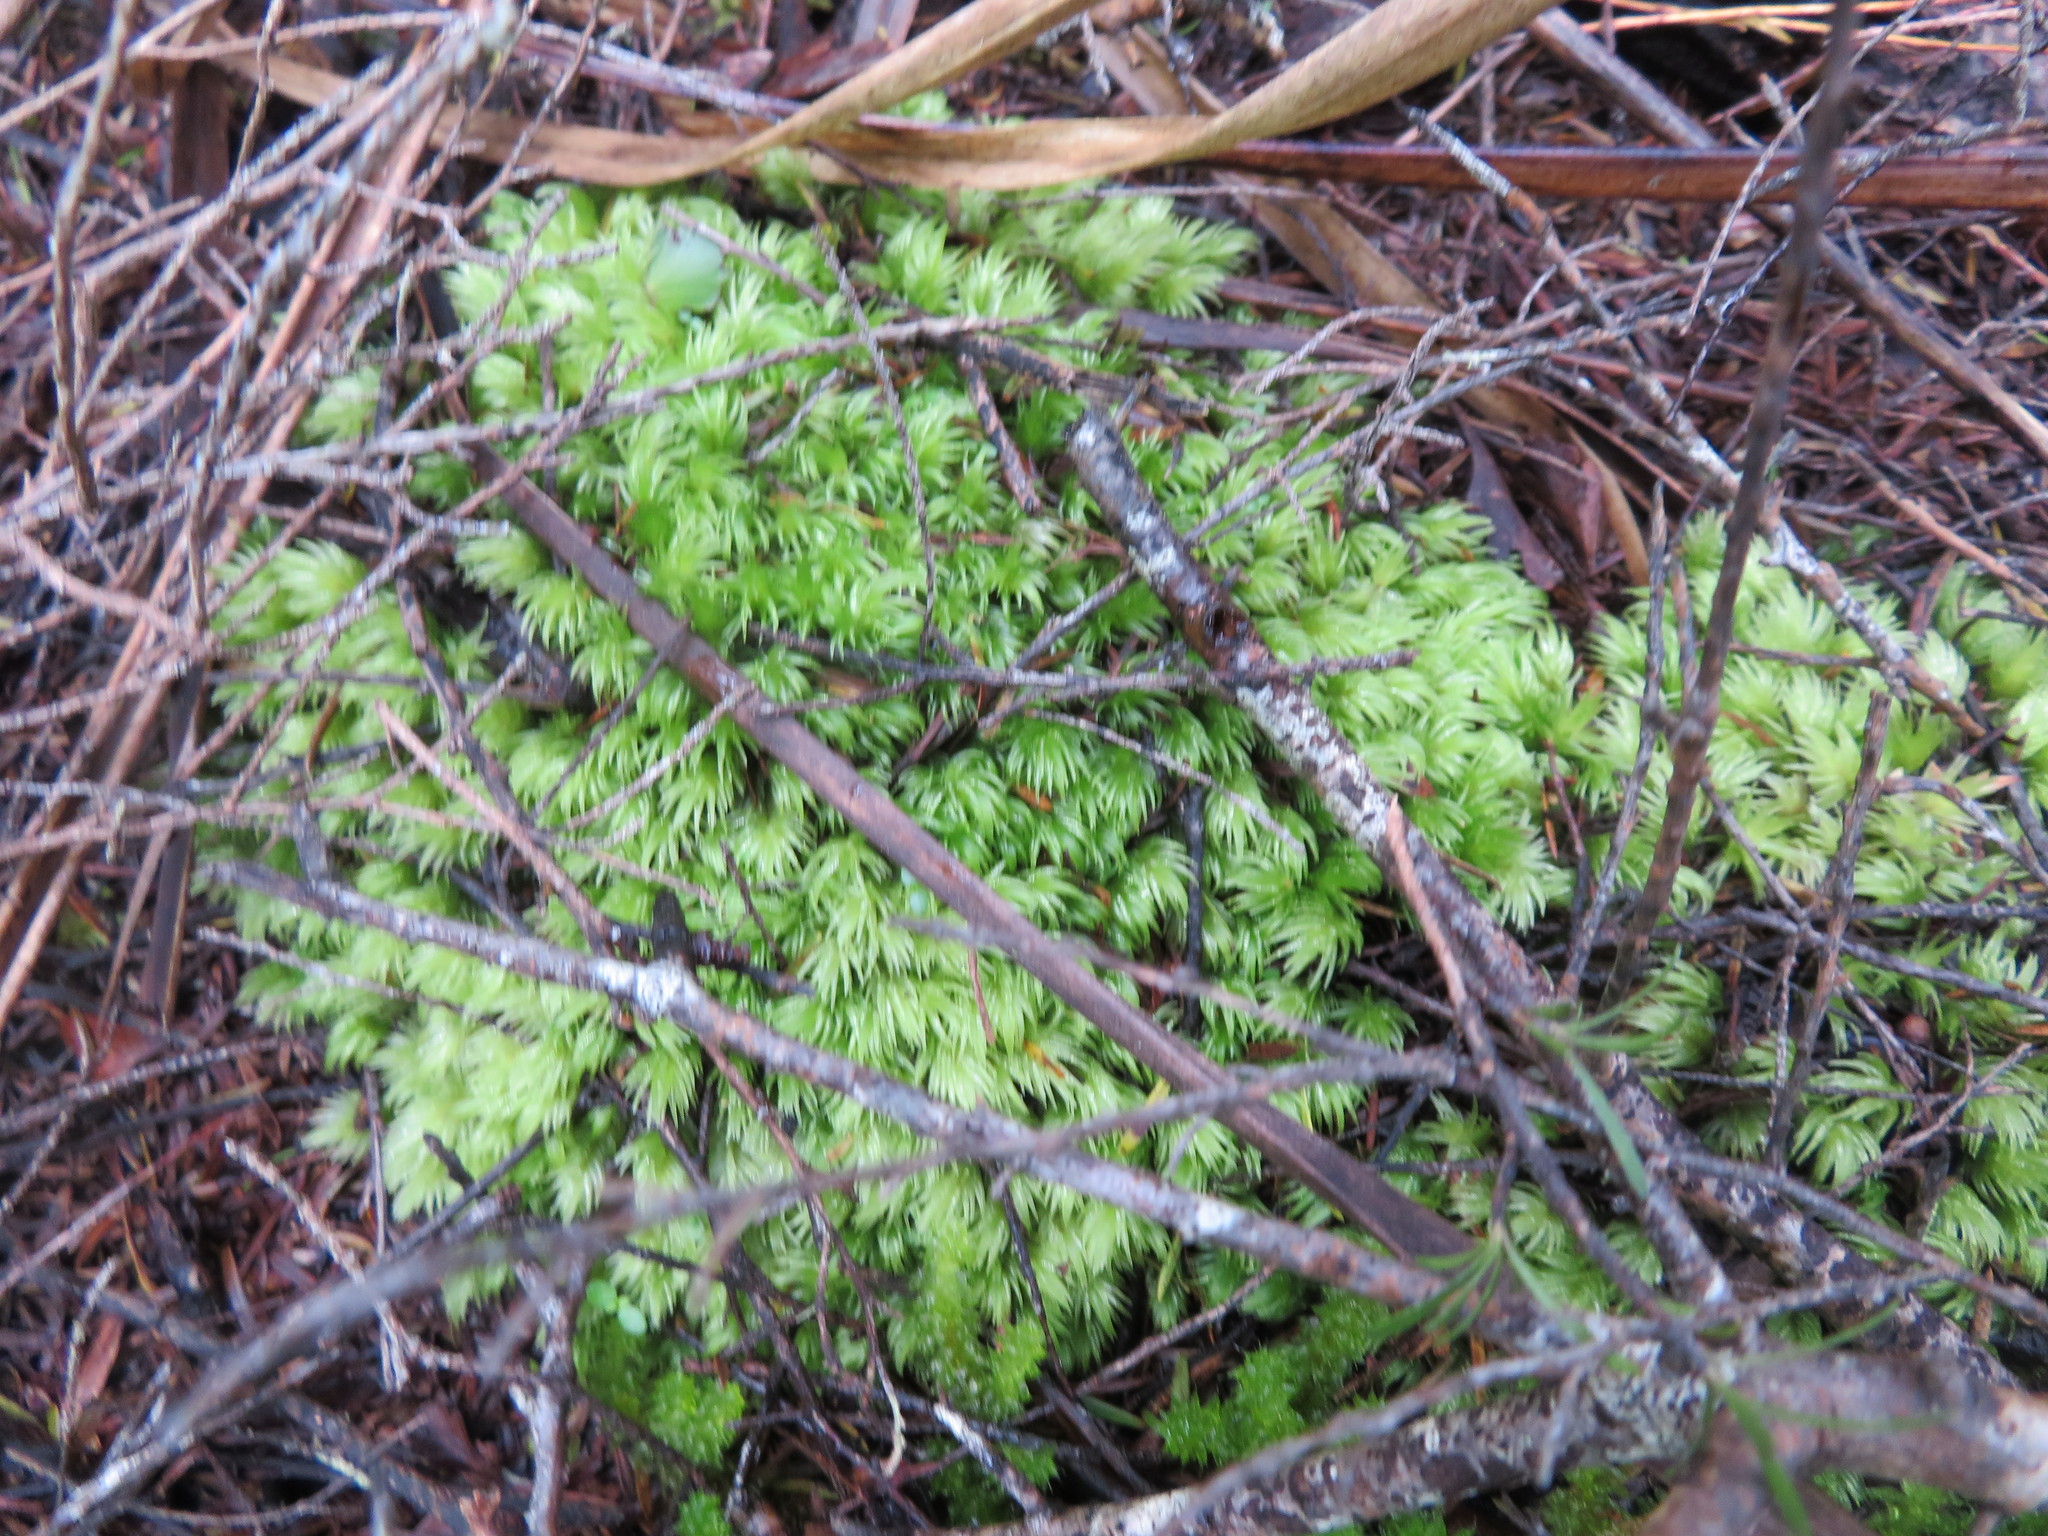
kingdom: Plantae
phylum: Bryophyta
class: Bryopsida
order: Dicranales
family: Leucobryaceae
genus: Leucobryum
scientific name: Leucobryum javense
